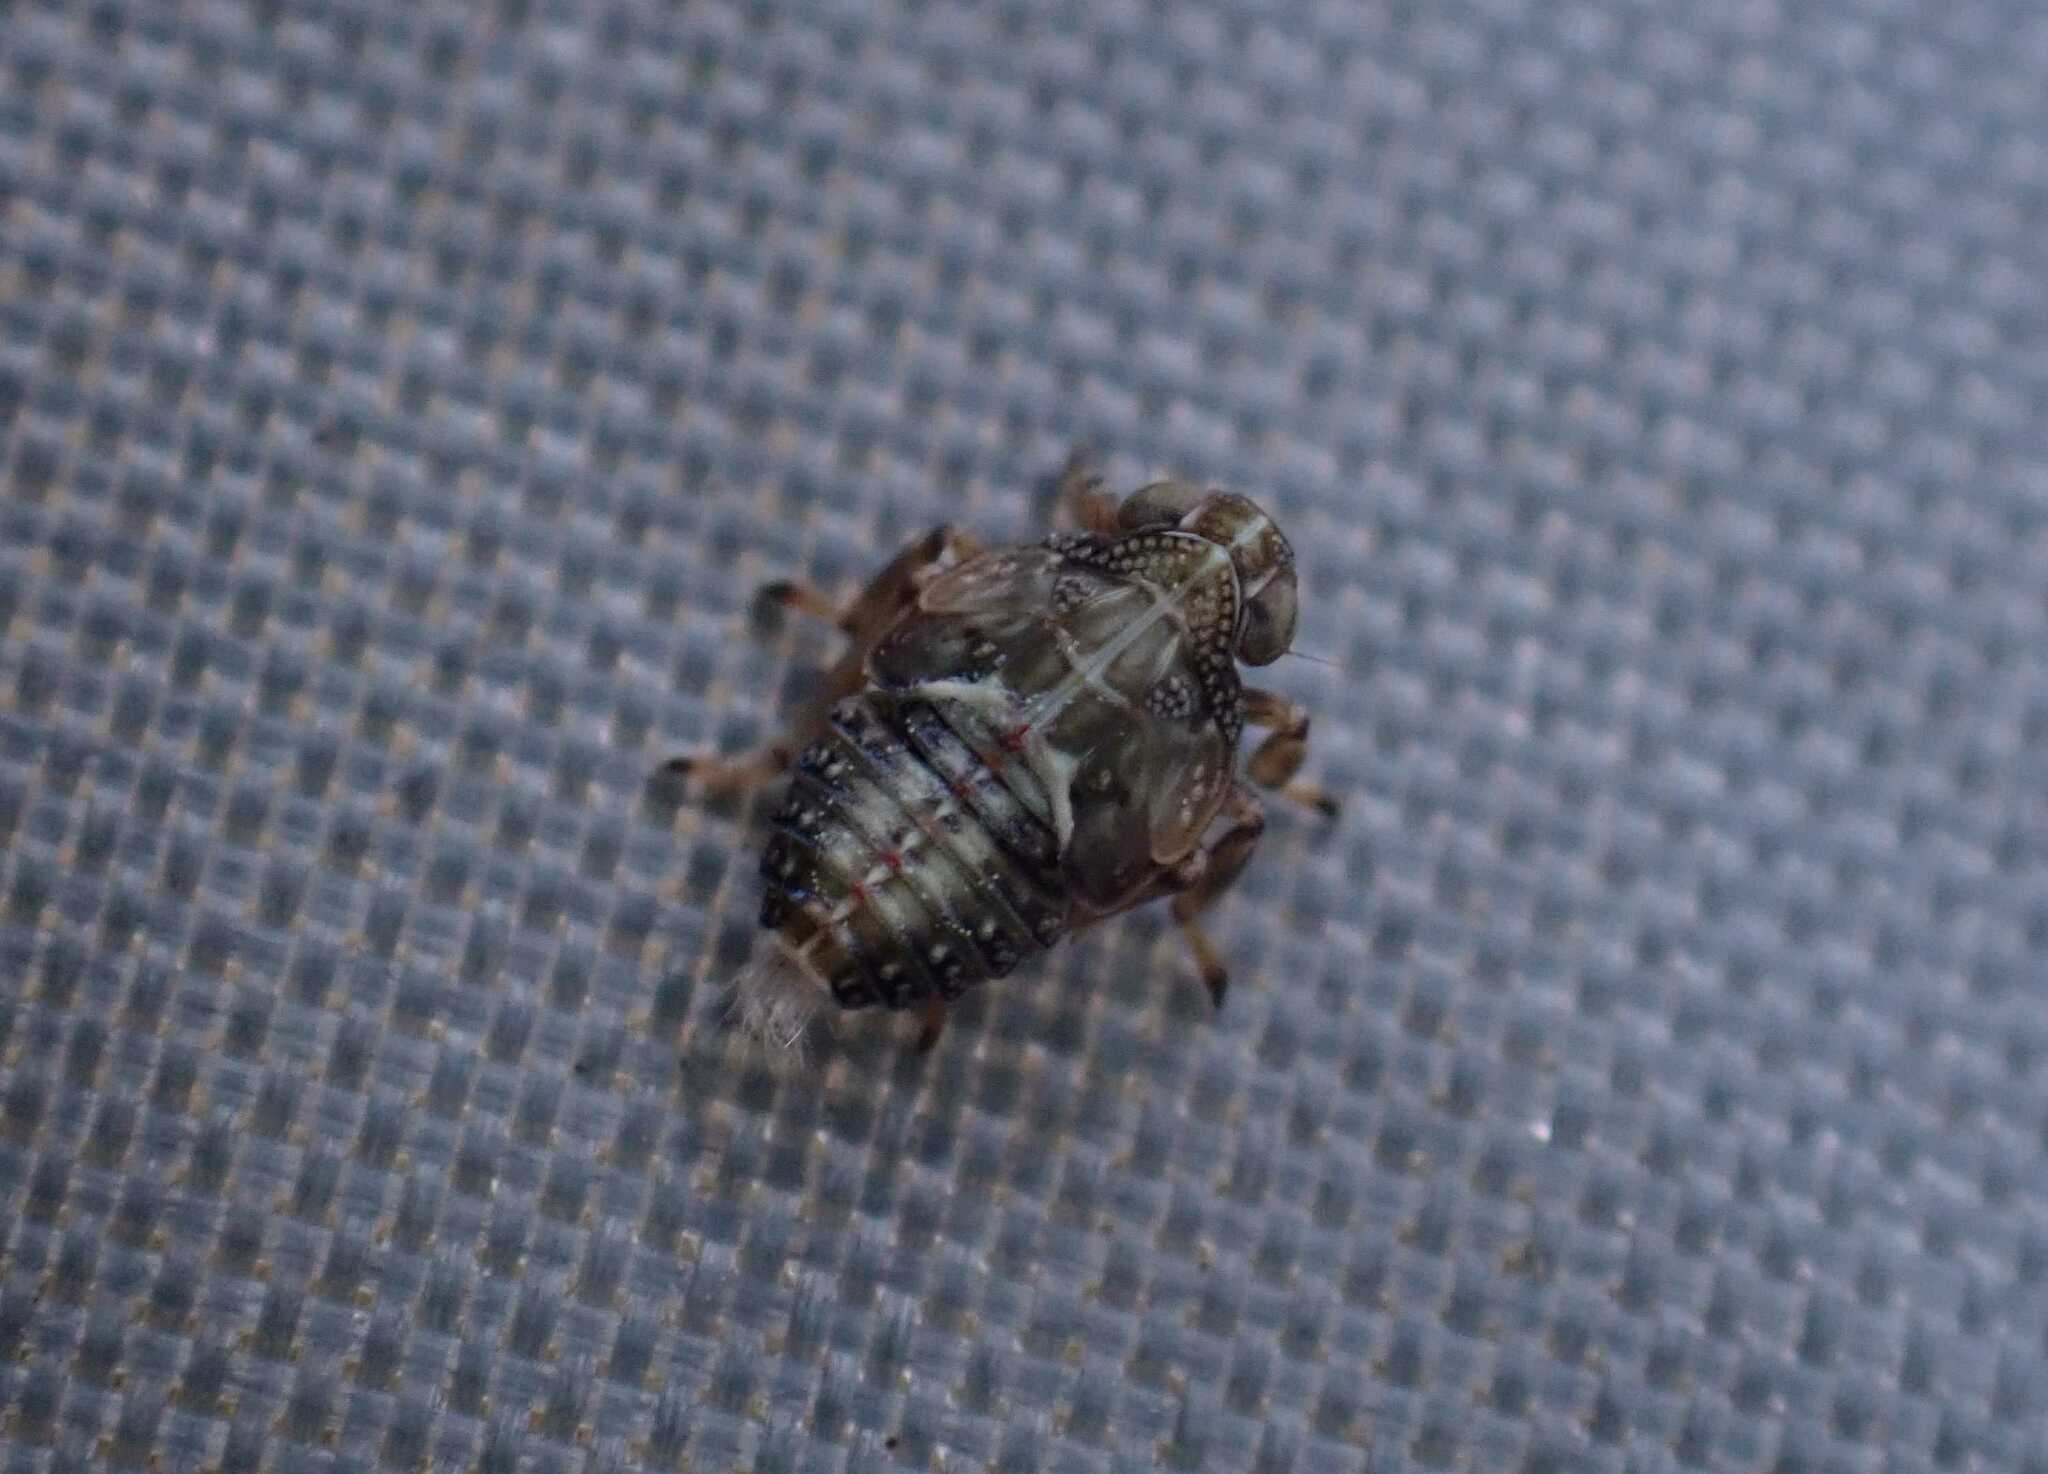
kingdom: Animalia
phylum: Arthropoda
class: Insecta
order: Hemiptera
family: Issidae
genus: Issus
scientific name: Issus coleoptratus
